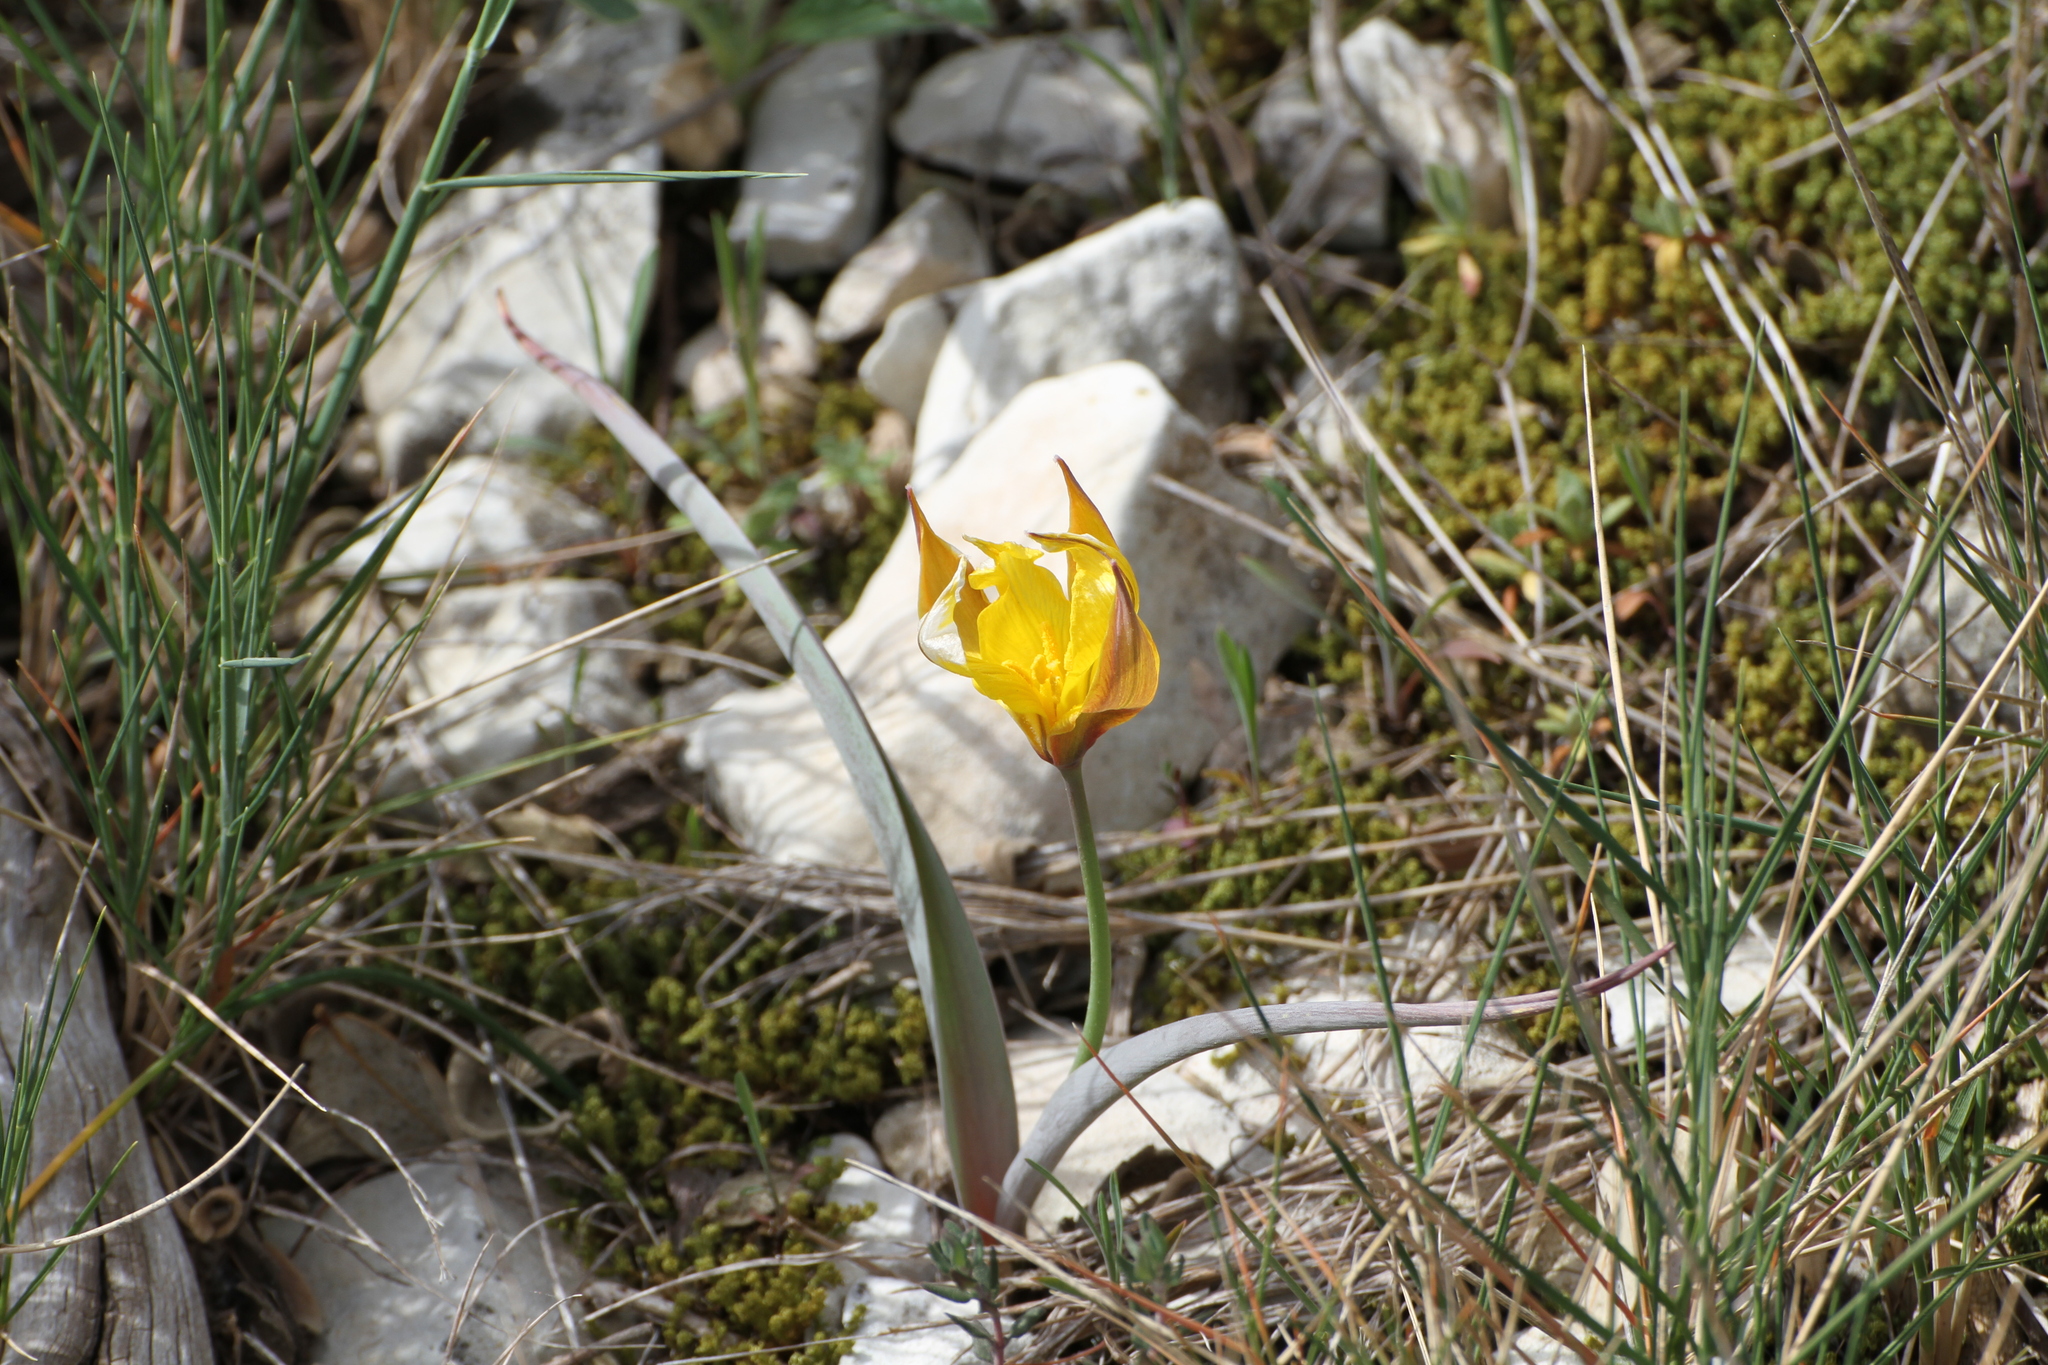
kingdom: Plantae
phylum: Tracheophyta
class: Liliopsida
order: Liliales
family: Liliaceae
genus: Tulipa
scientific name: Tulipa sylvestris
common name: Wild tulip
